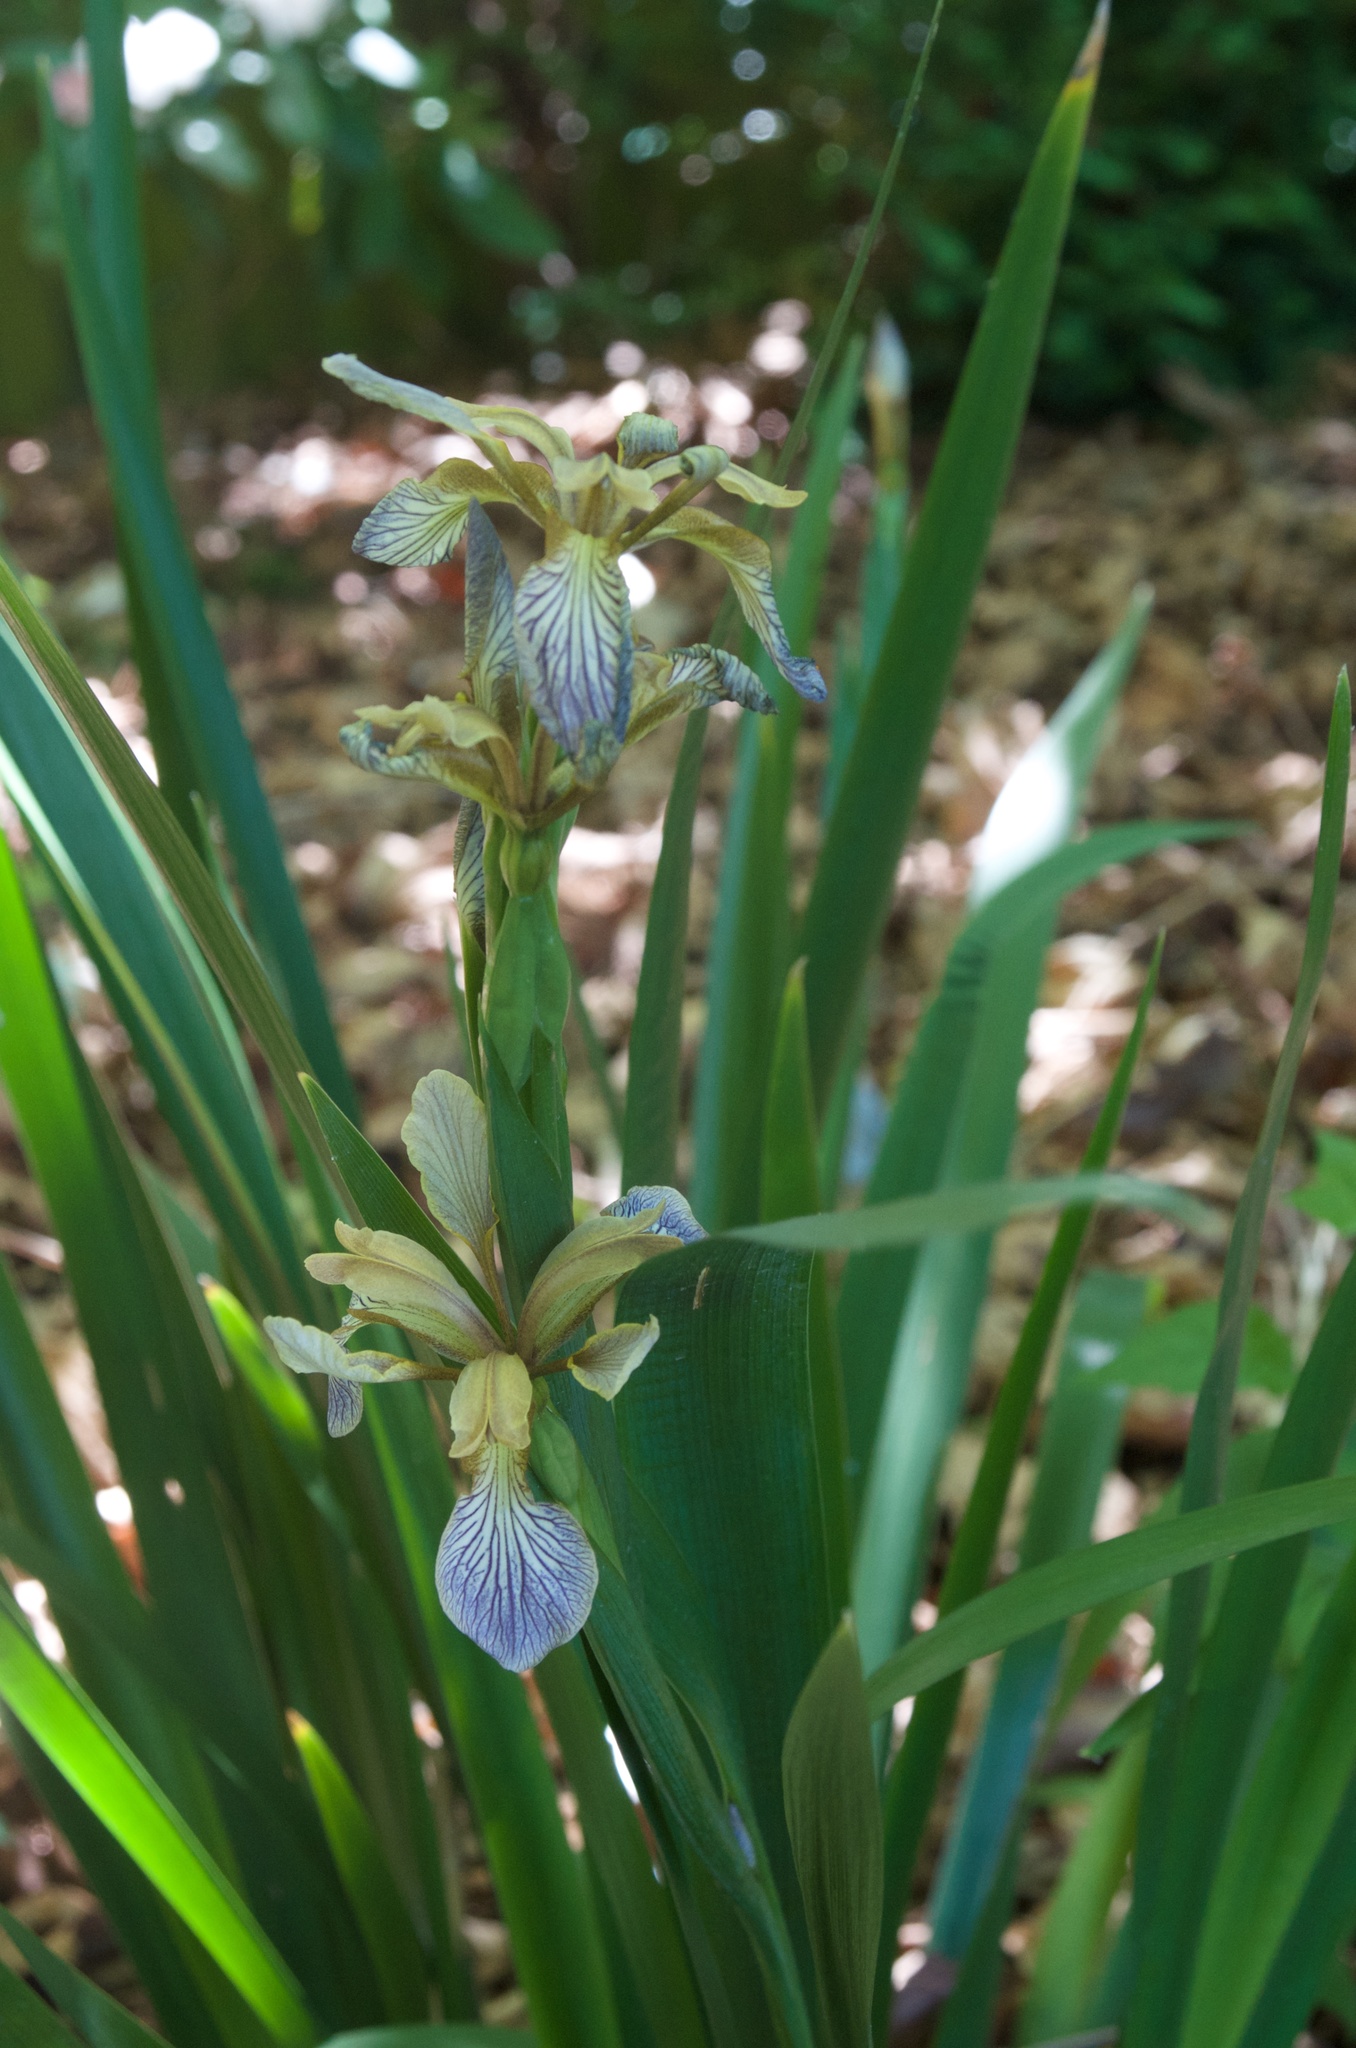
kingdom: Plantae
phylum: Tracheophyta
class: Liliopsida
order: Asparagales
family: Iridaceae
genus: Iris
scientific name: Iris foetidissima
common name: Stinking iris
